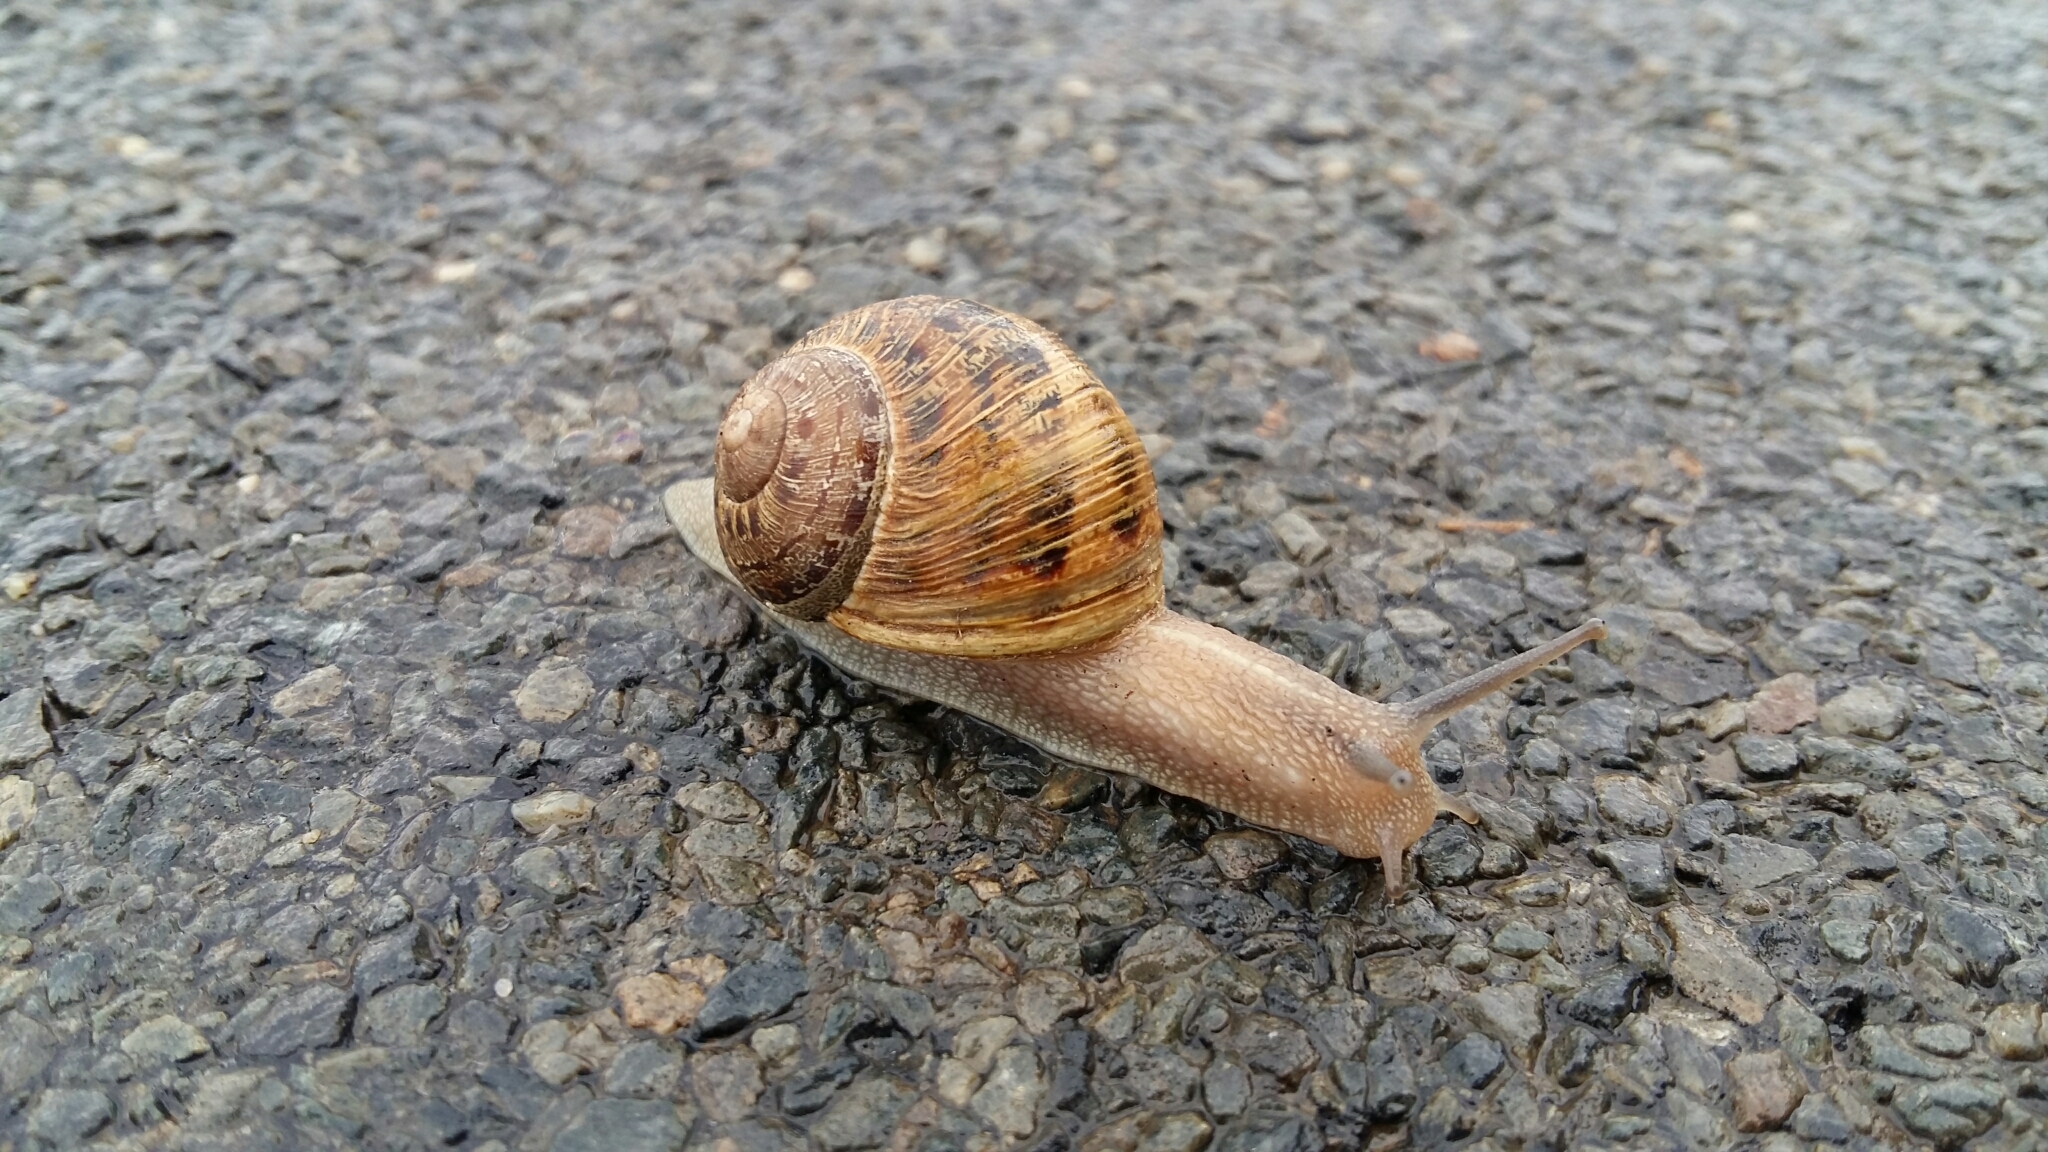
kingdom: Animalia
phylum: Mollusca
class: Gastropoda
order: Stylommatophora
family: Helicidae
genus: Cornu
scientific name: Cornu aspersum
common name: Brown garden snail
